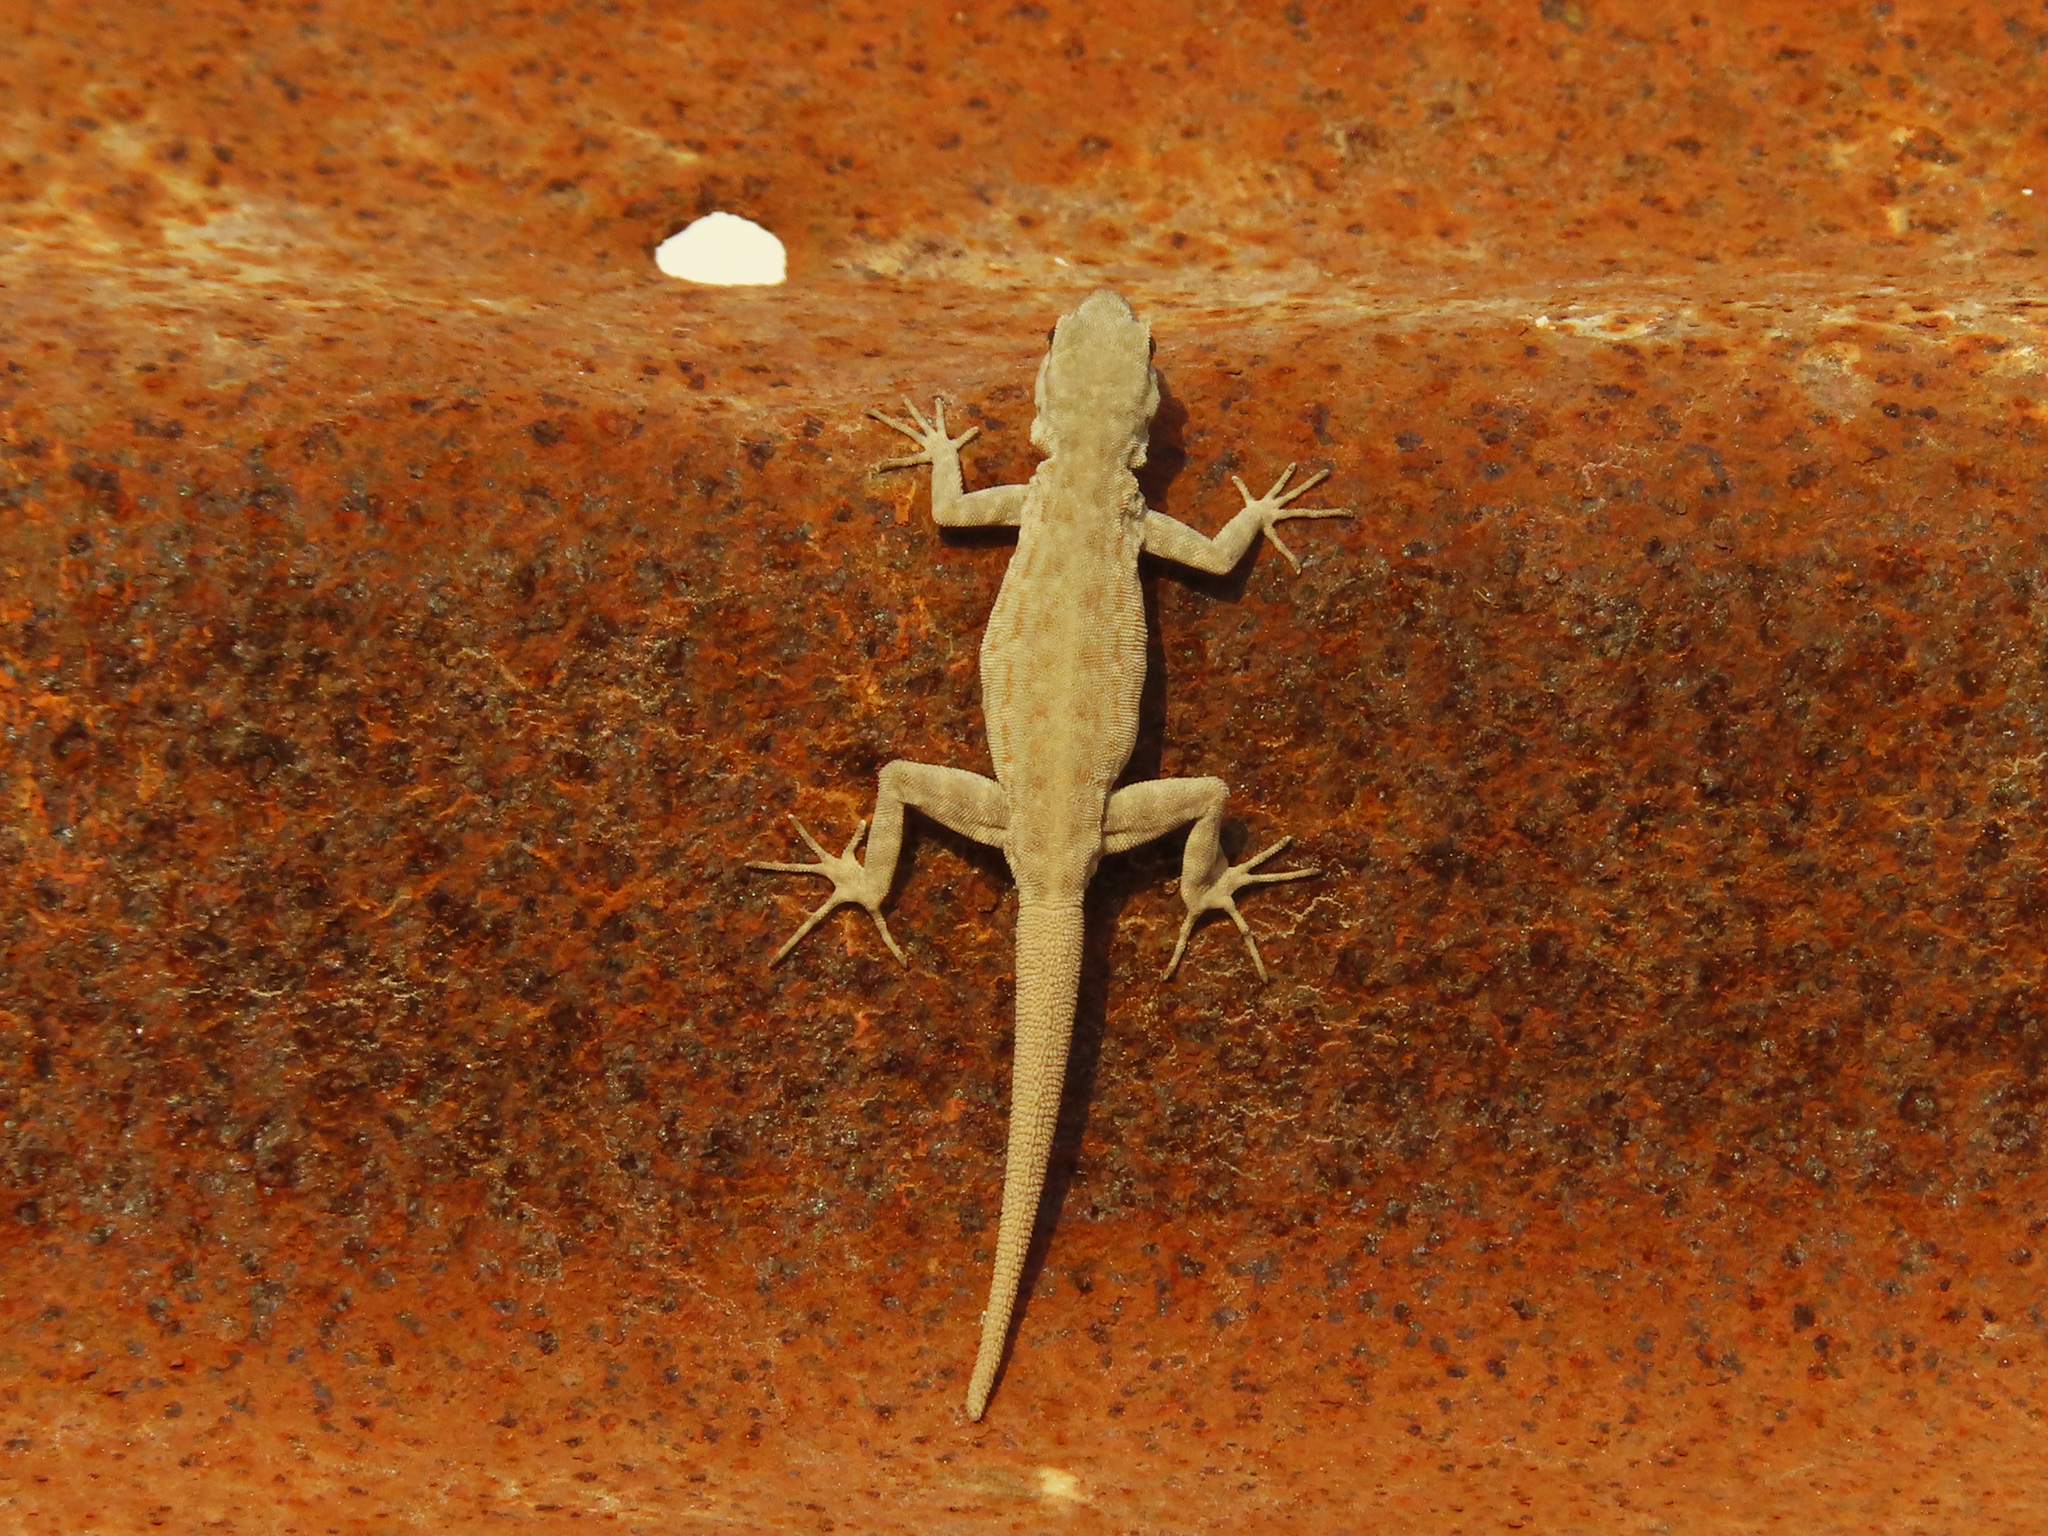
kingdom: Animalia
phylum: Chordata
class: Squamata
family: Sphaerodactylidae
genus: Pristurus
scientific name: Pristurus rupestris
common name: Blanford’s semaphore gecko
